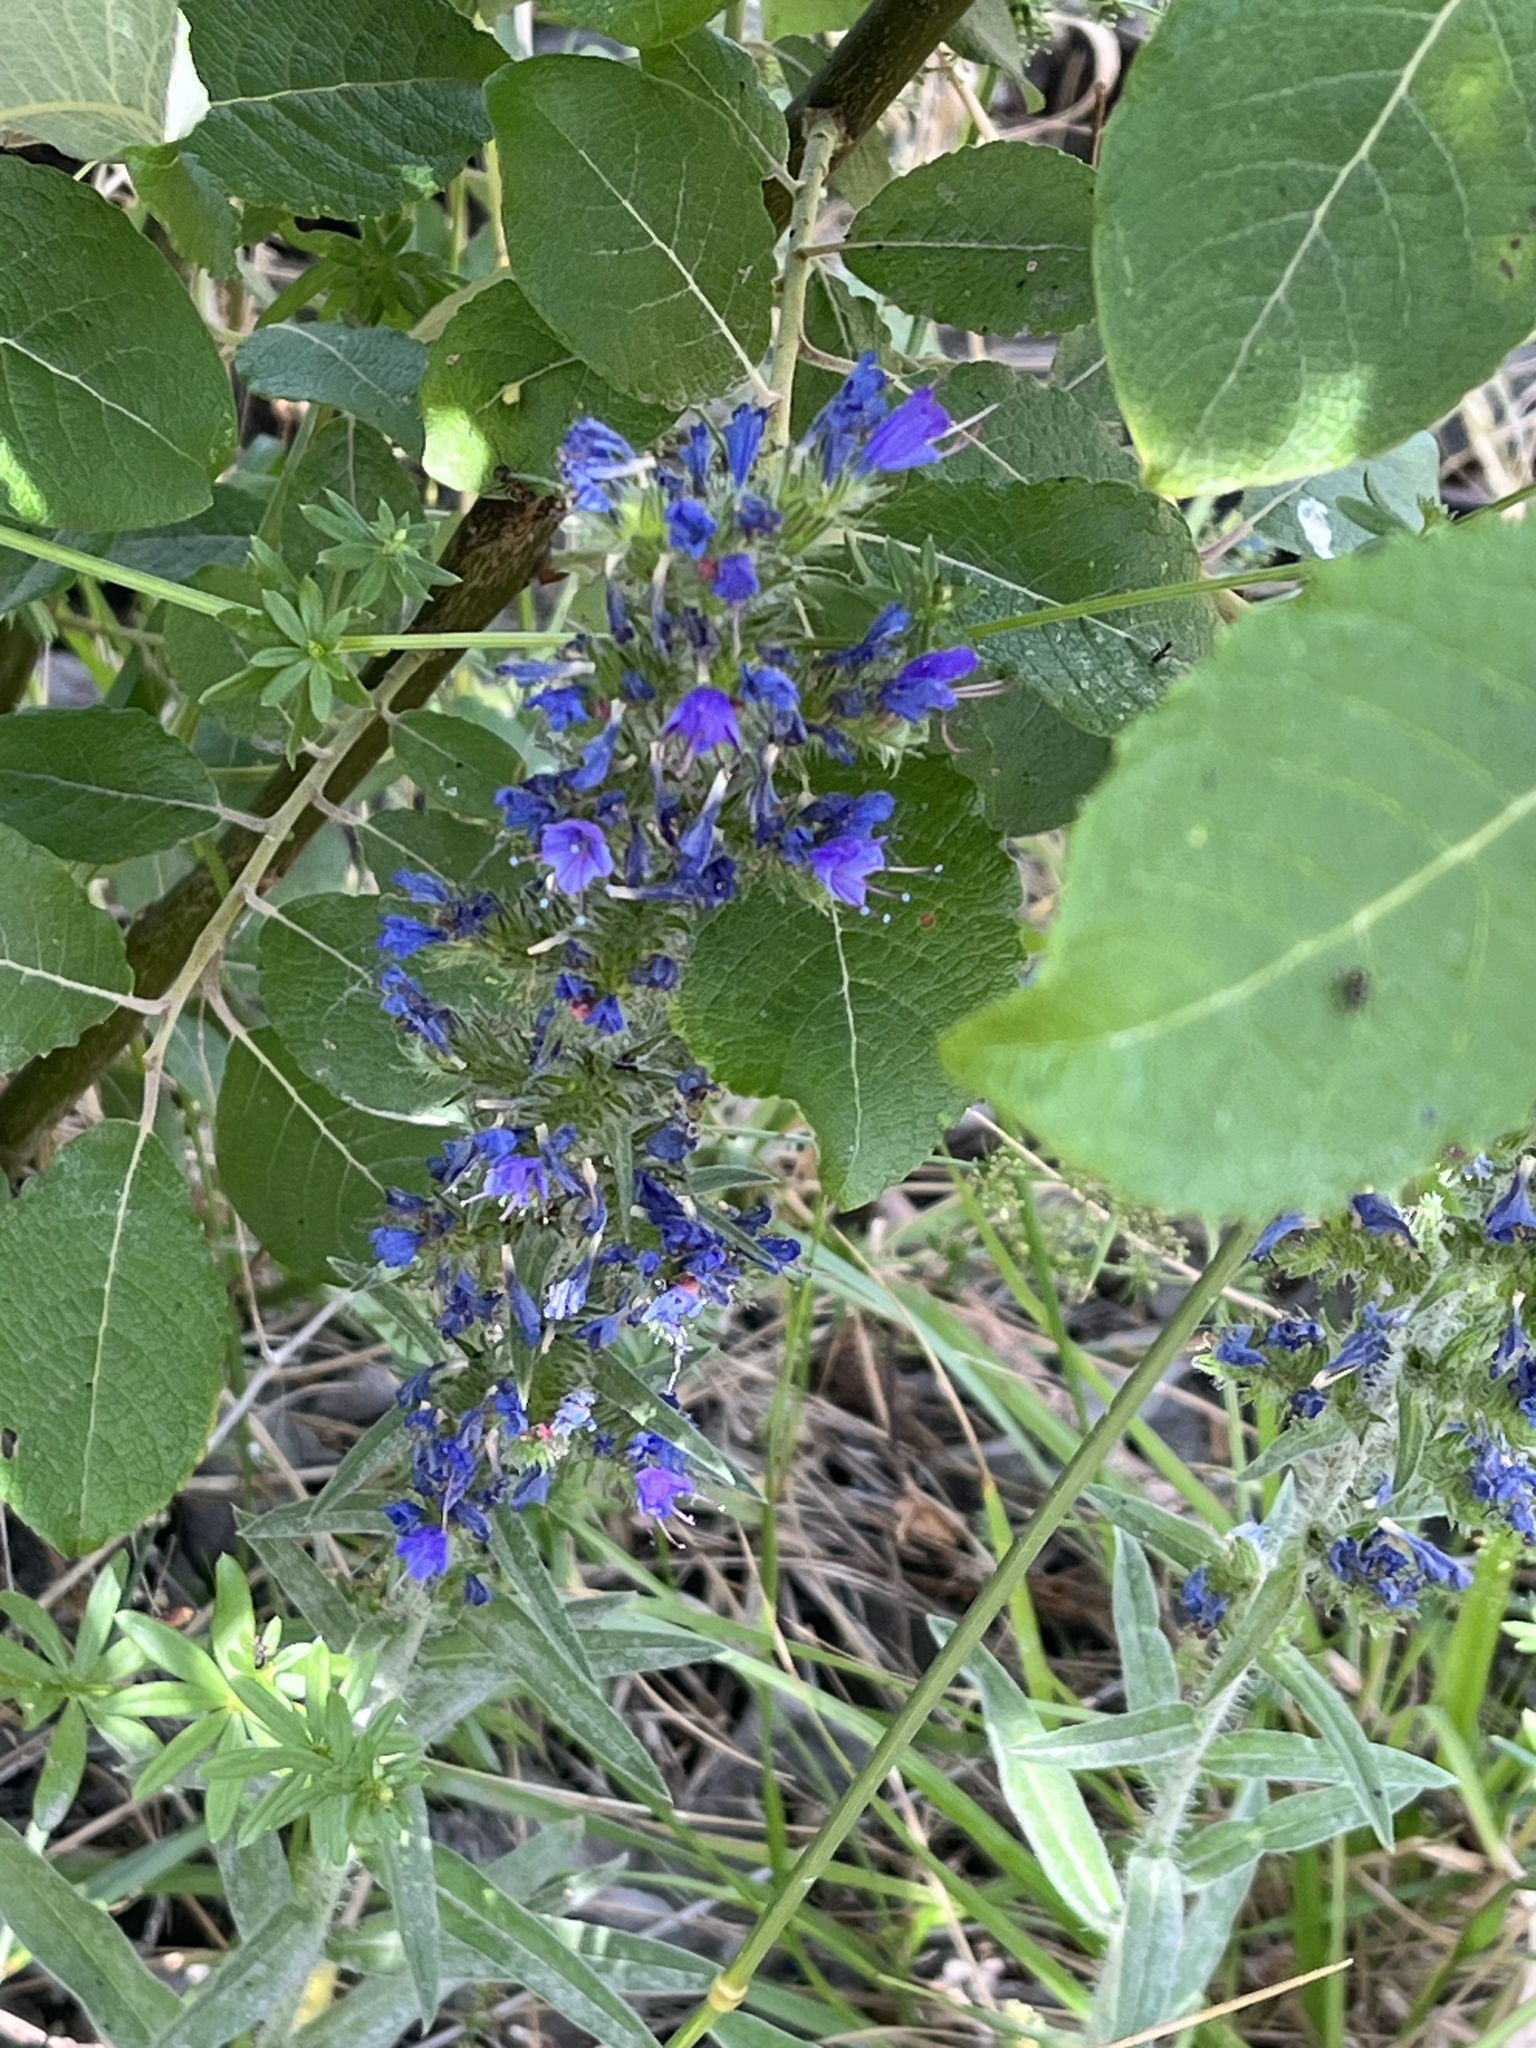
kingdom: Plantae
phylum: Tracheophyta
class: Magnoliopsida
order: Boraginales
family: Boraginaceae
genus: Echium
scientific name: Echium vulgare
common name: Common viper's bugloss
